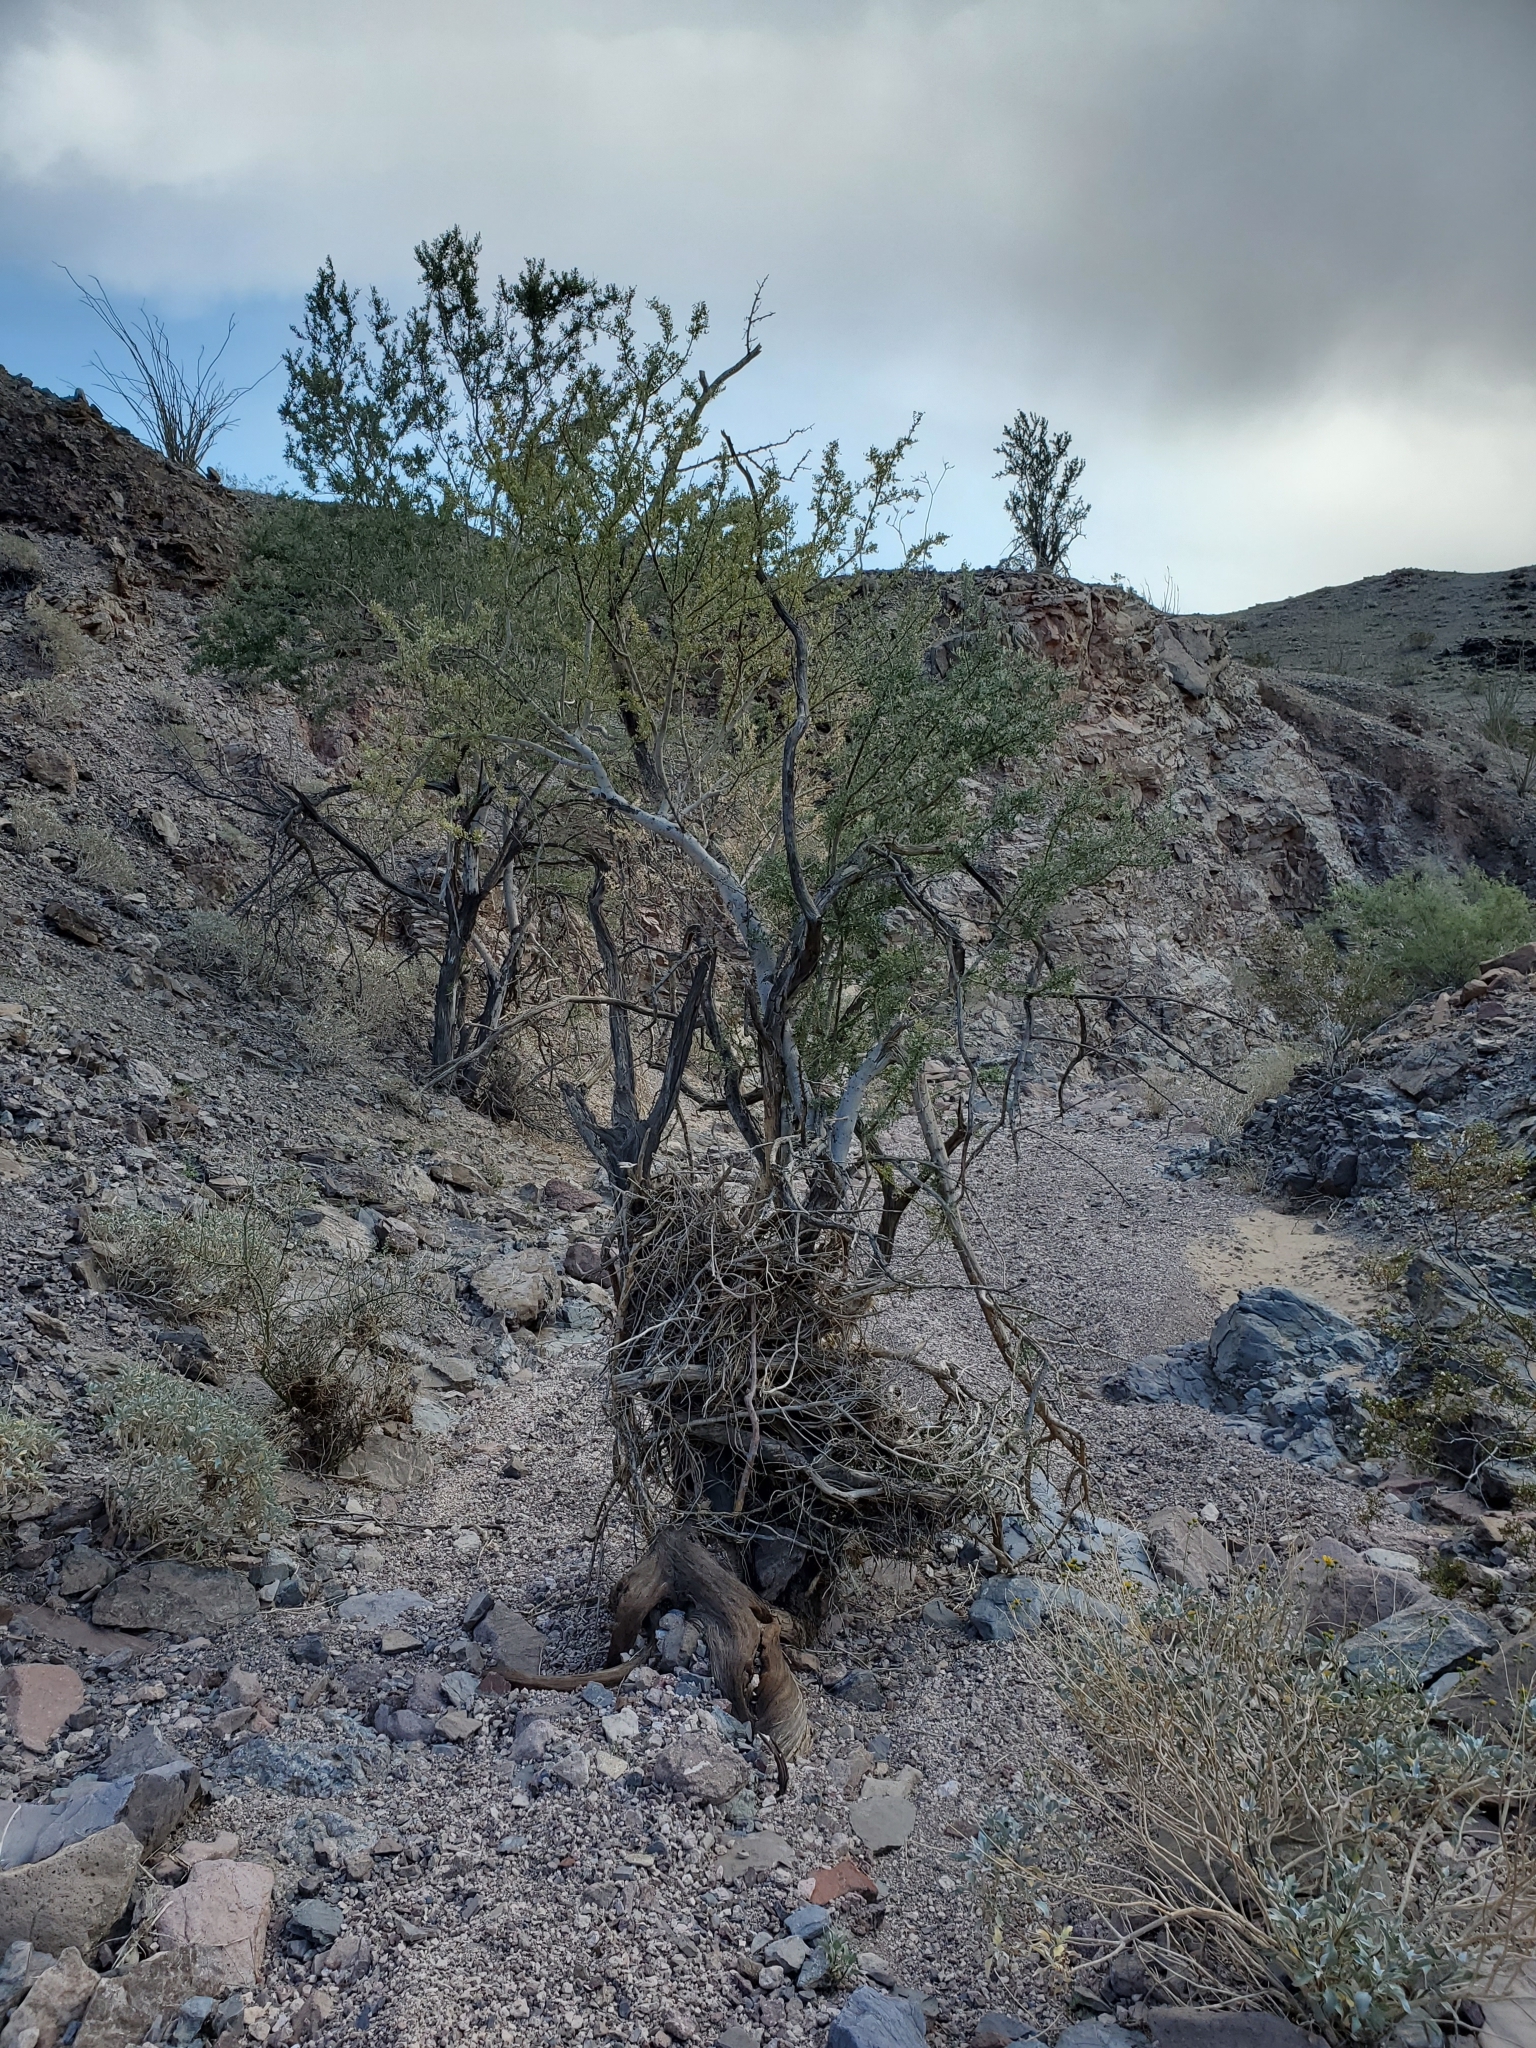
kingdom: Plantae
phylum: Tracheophyta
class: Magnoliopsida
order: Fabales
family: Fabaceae
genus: Olneya
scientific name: Olneya tesota
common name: Desert ironwood
